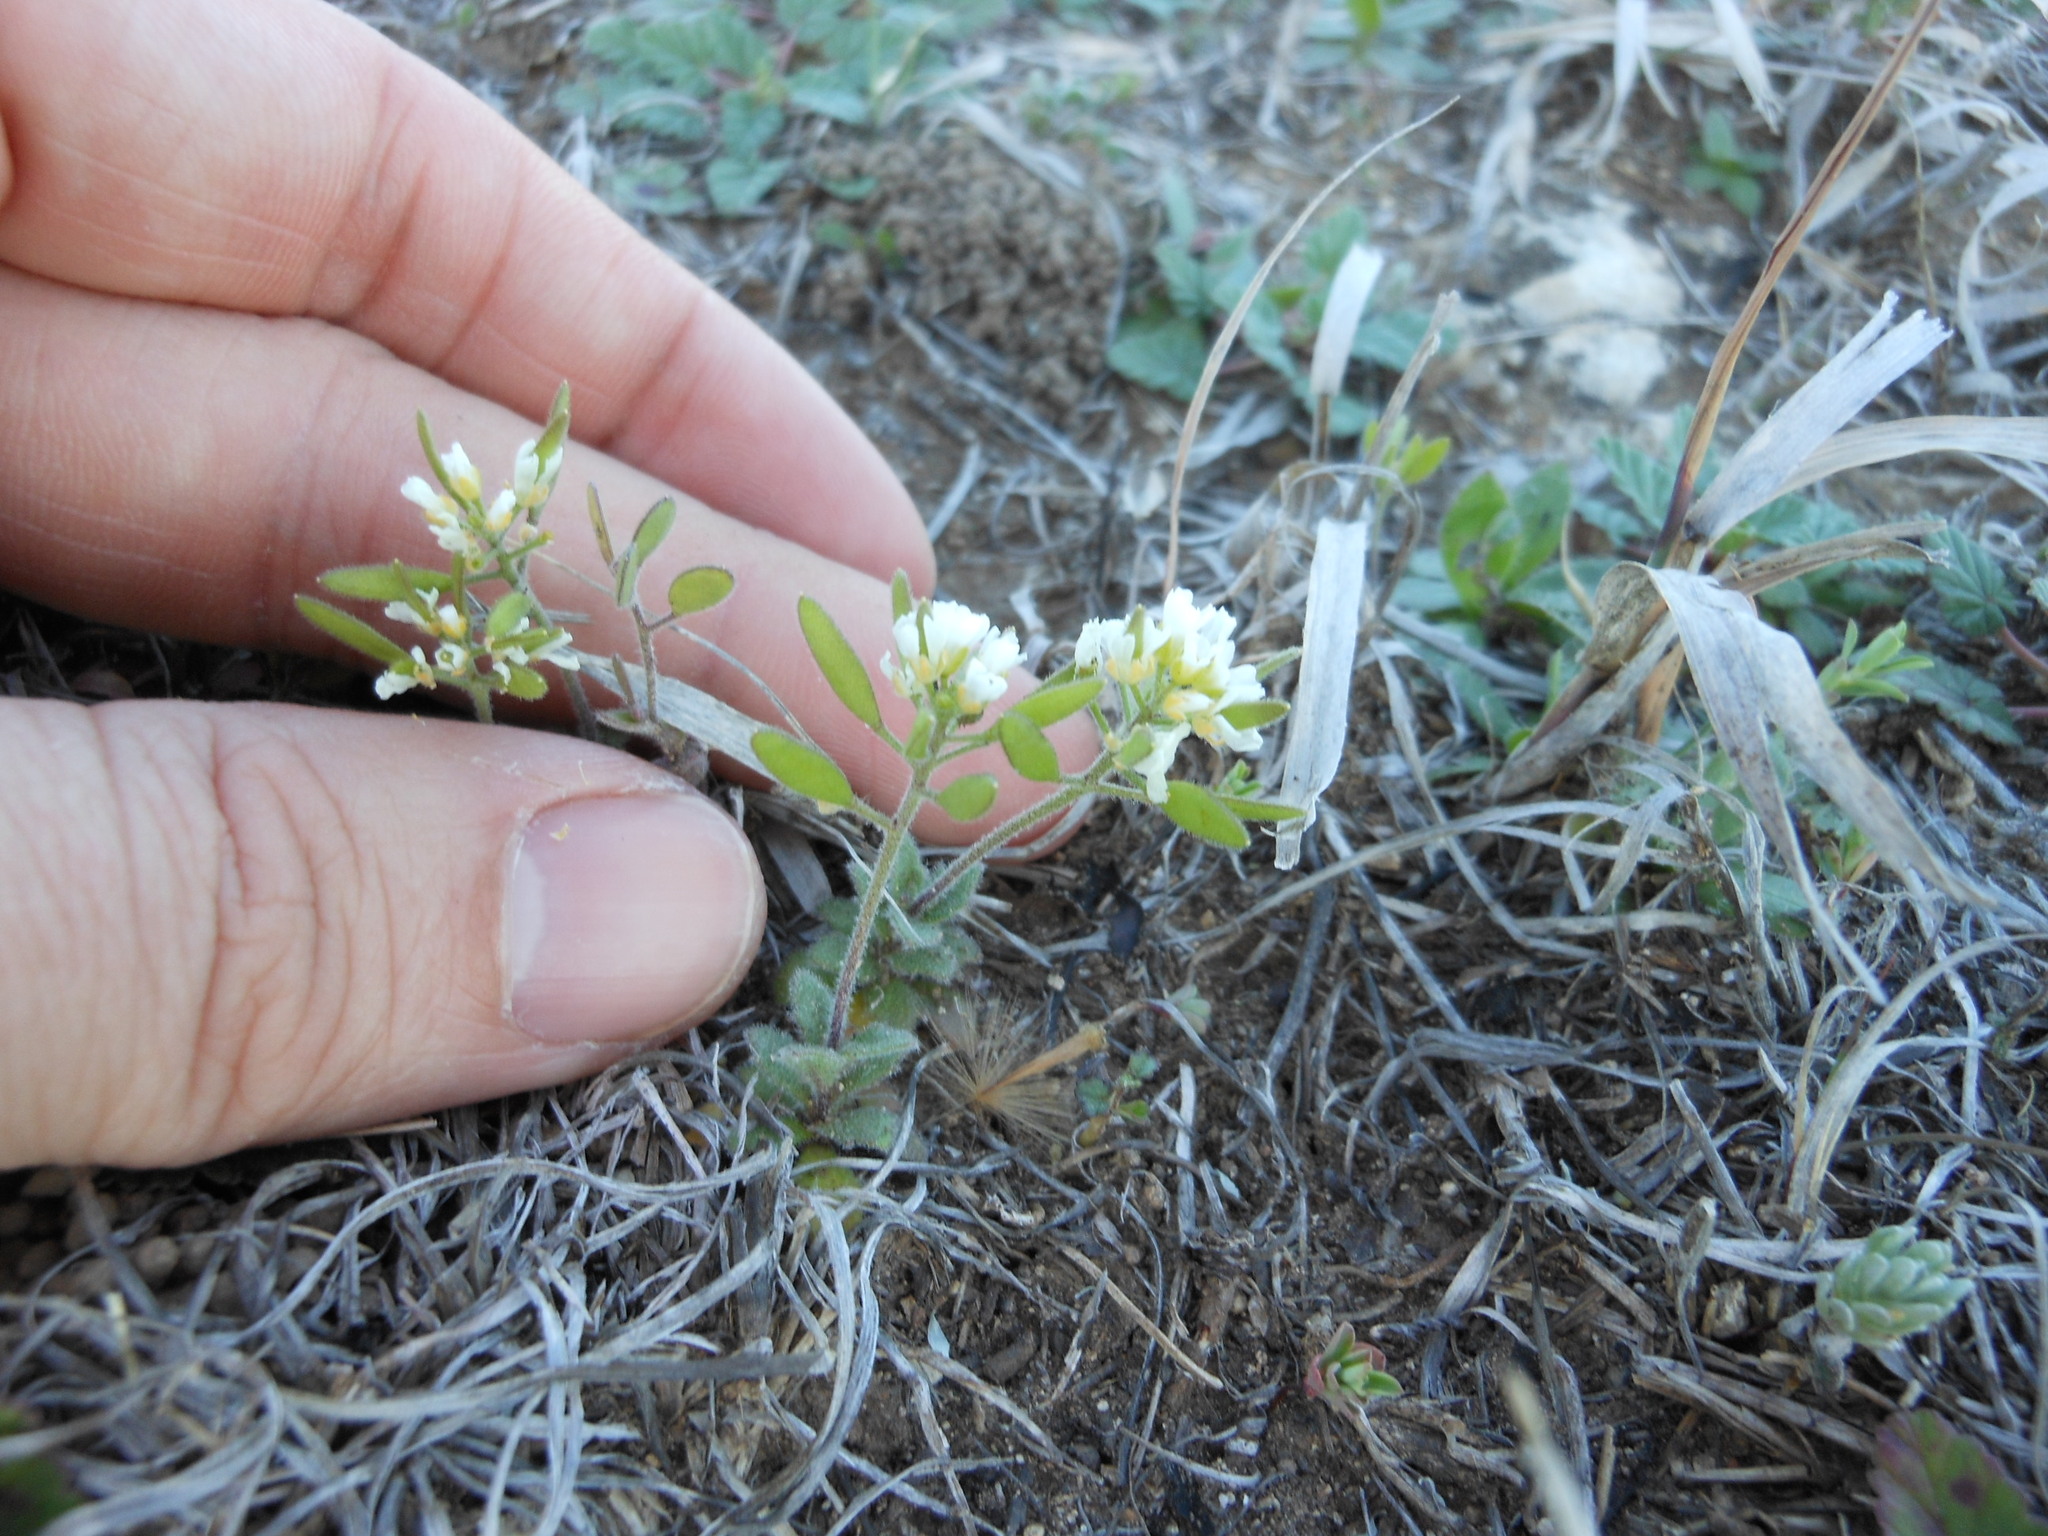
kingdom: Plantae
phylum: Tracheophyta
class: Magnoliopsida
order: Brassicales
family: Brassicaceae
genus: Tomostima
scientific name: Tomostima cuneifolia
